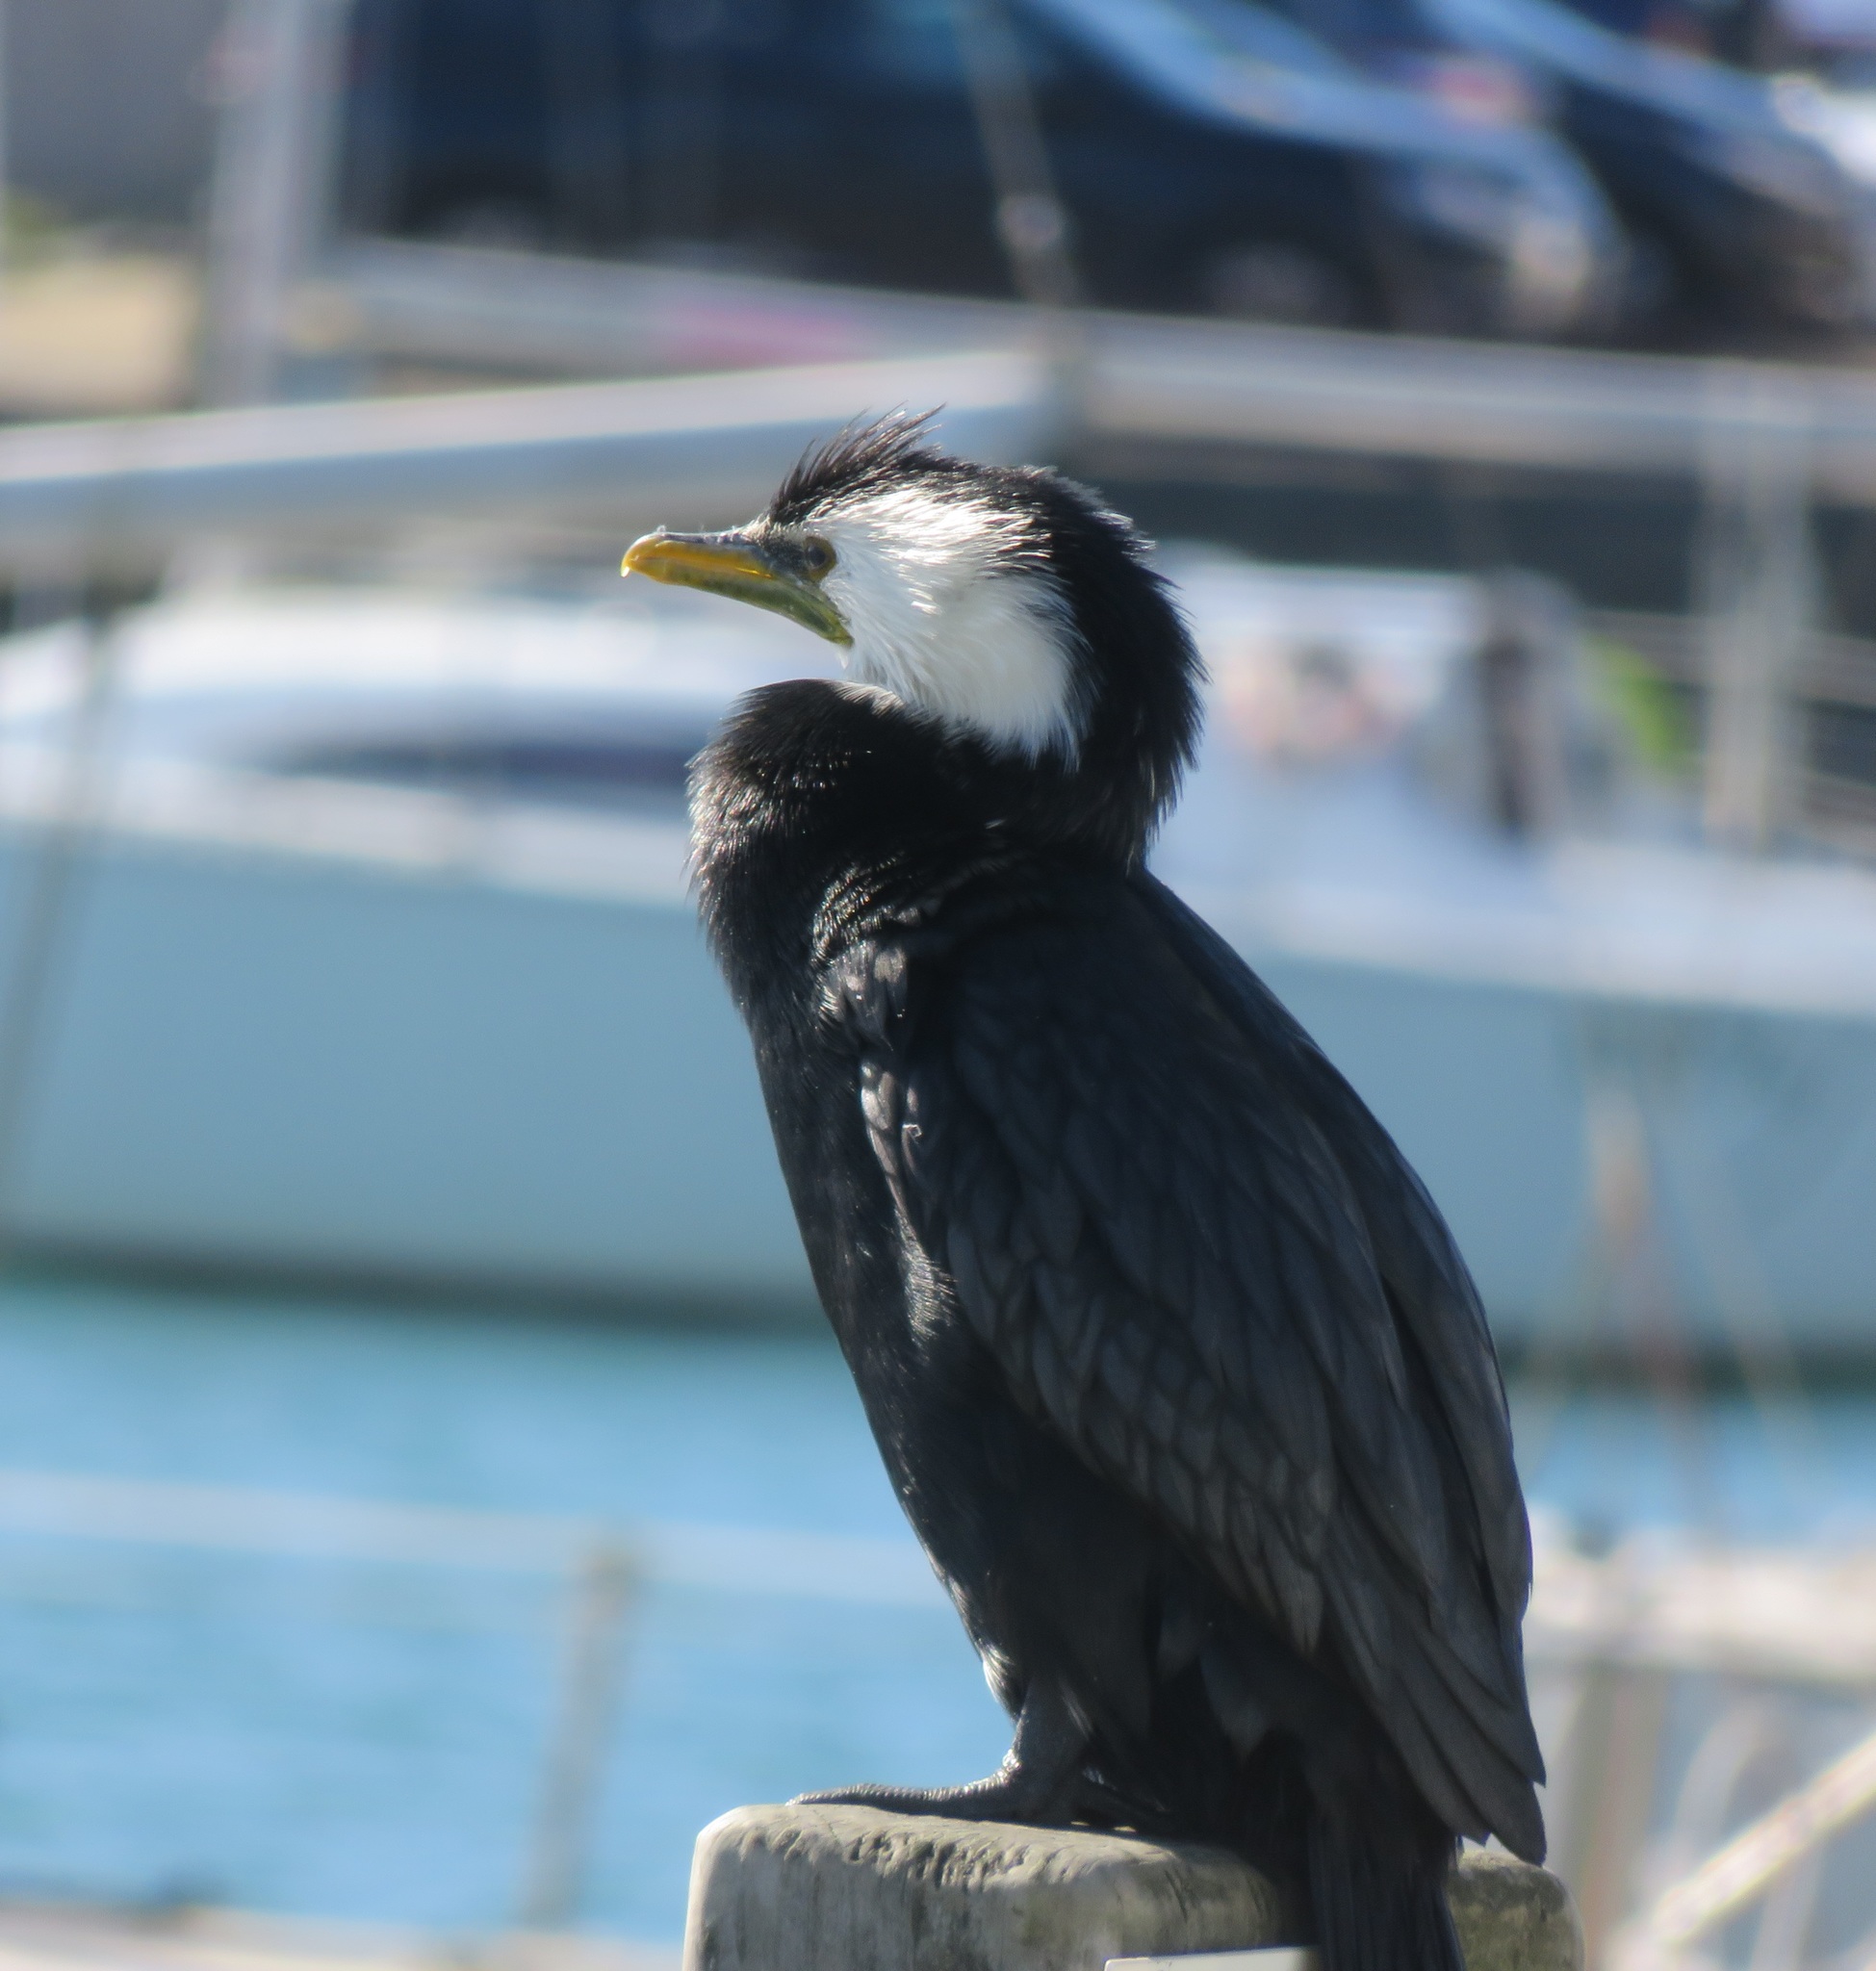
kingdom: Animalia
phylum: Chordata
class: Aves
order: Suliformes
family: Phalacrocoracidae
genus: Microcarbo
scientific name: Microcarbo melanoleucos
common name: Little pied cormorant
